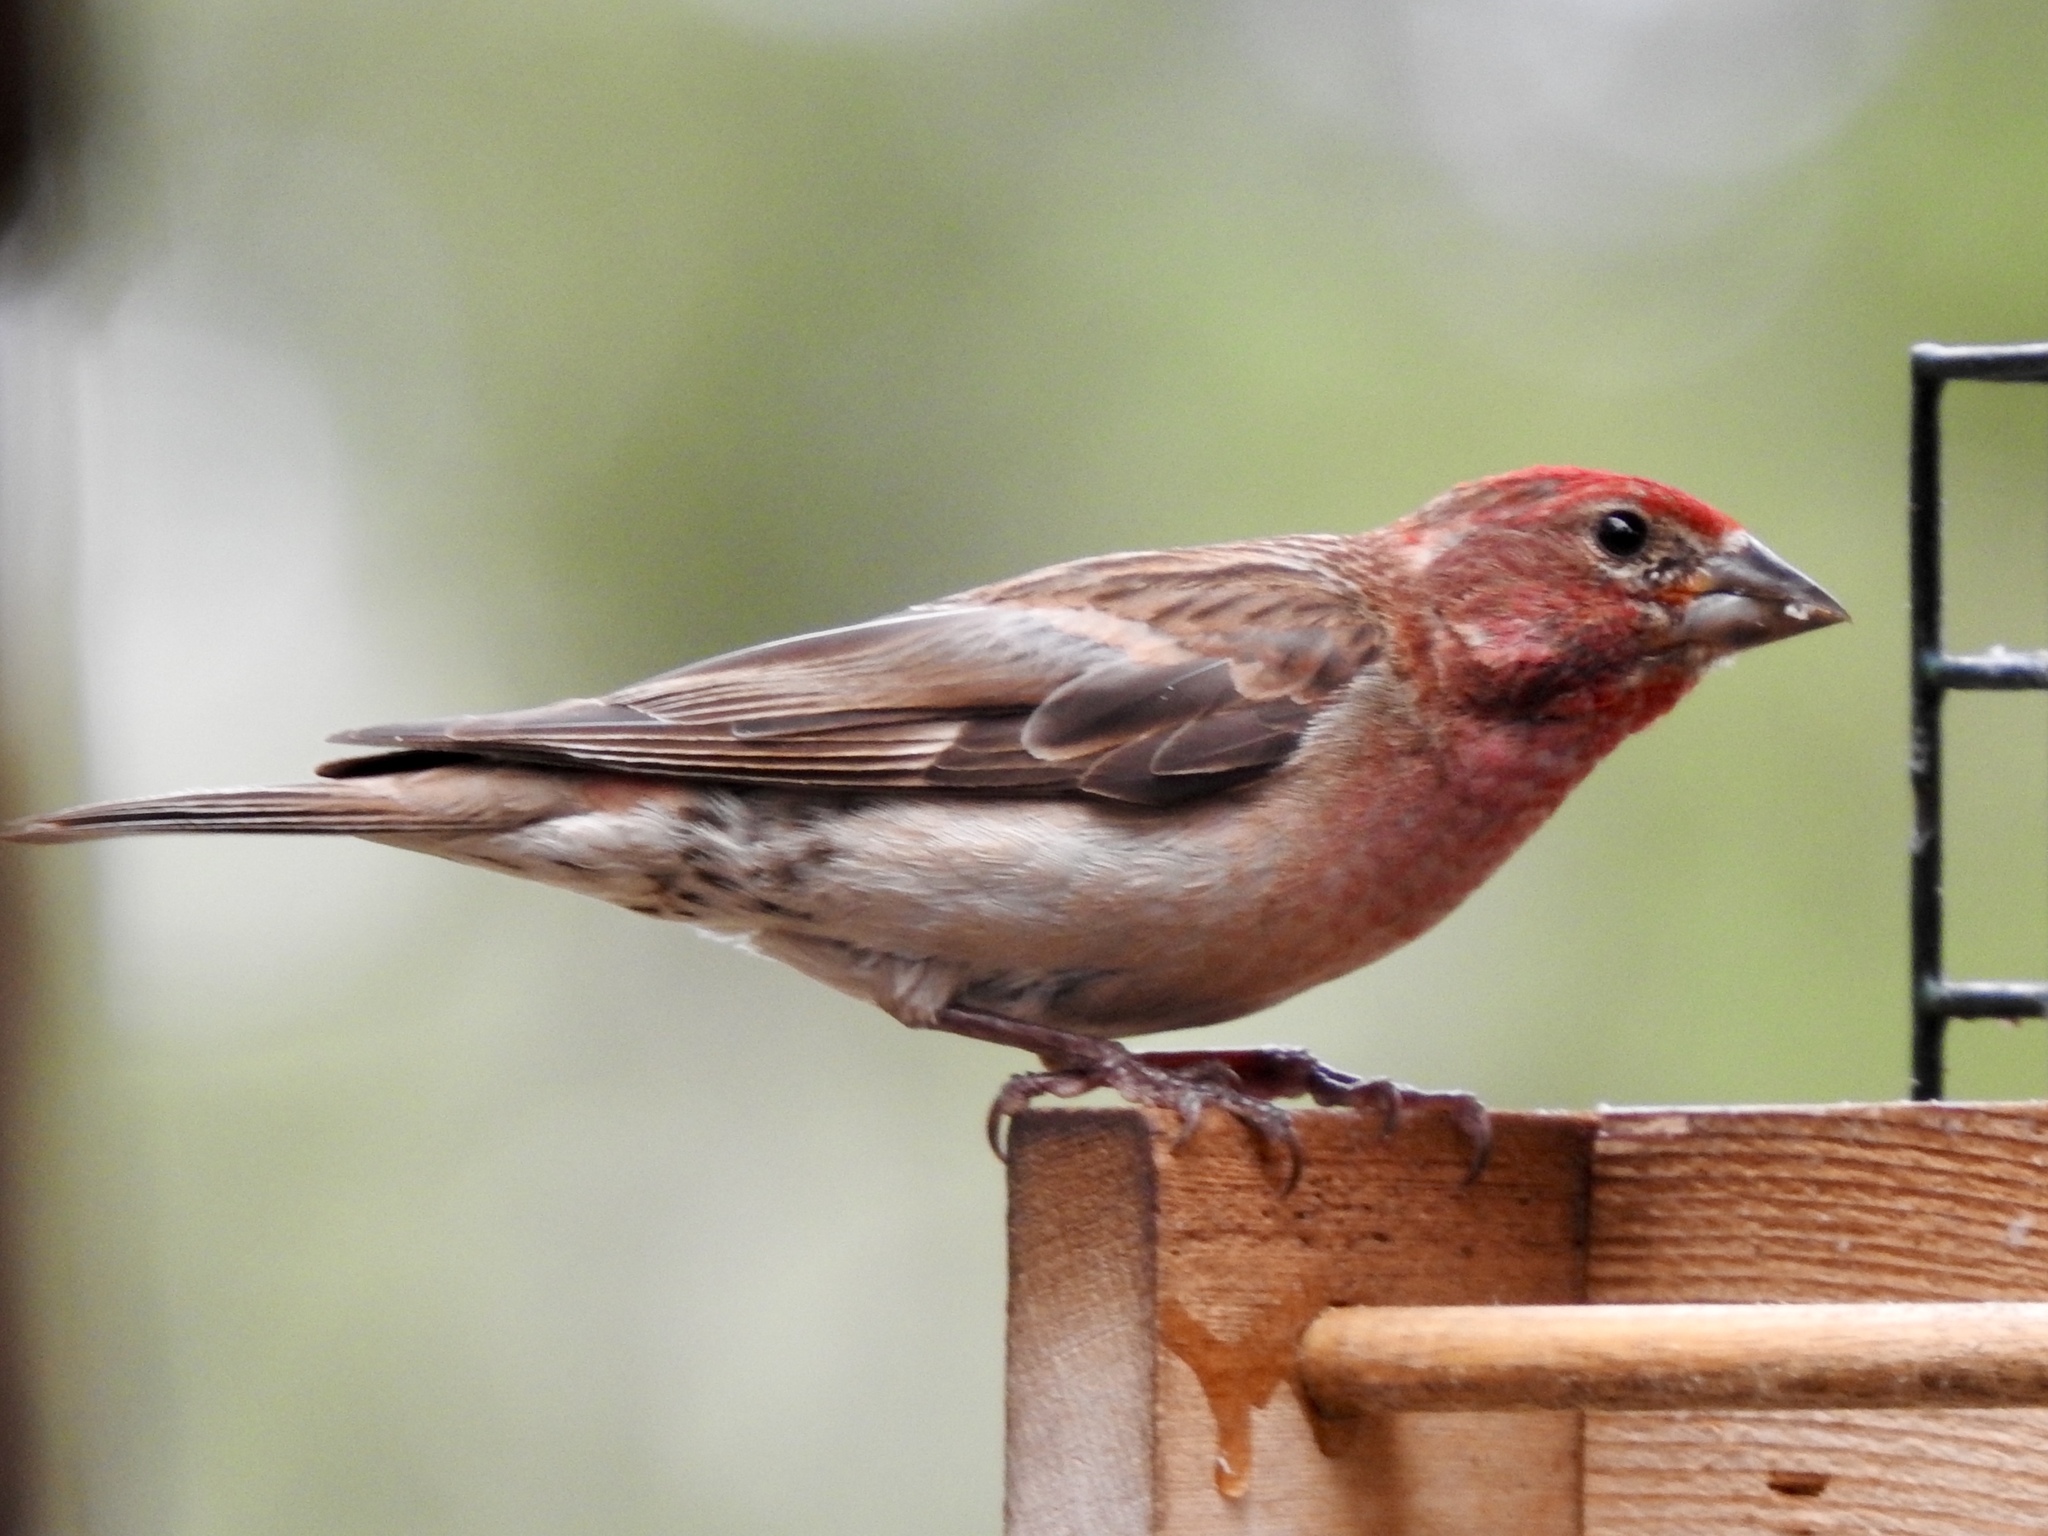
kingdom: Animalia
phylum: Chordata
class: Aves
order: Passeriformes
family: Fringillidae
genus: Haemorhous
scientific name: Haemorhous cassinii
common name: Cassin's finch
